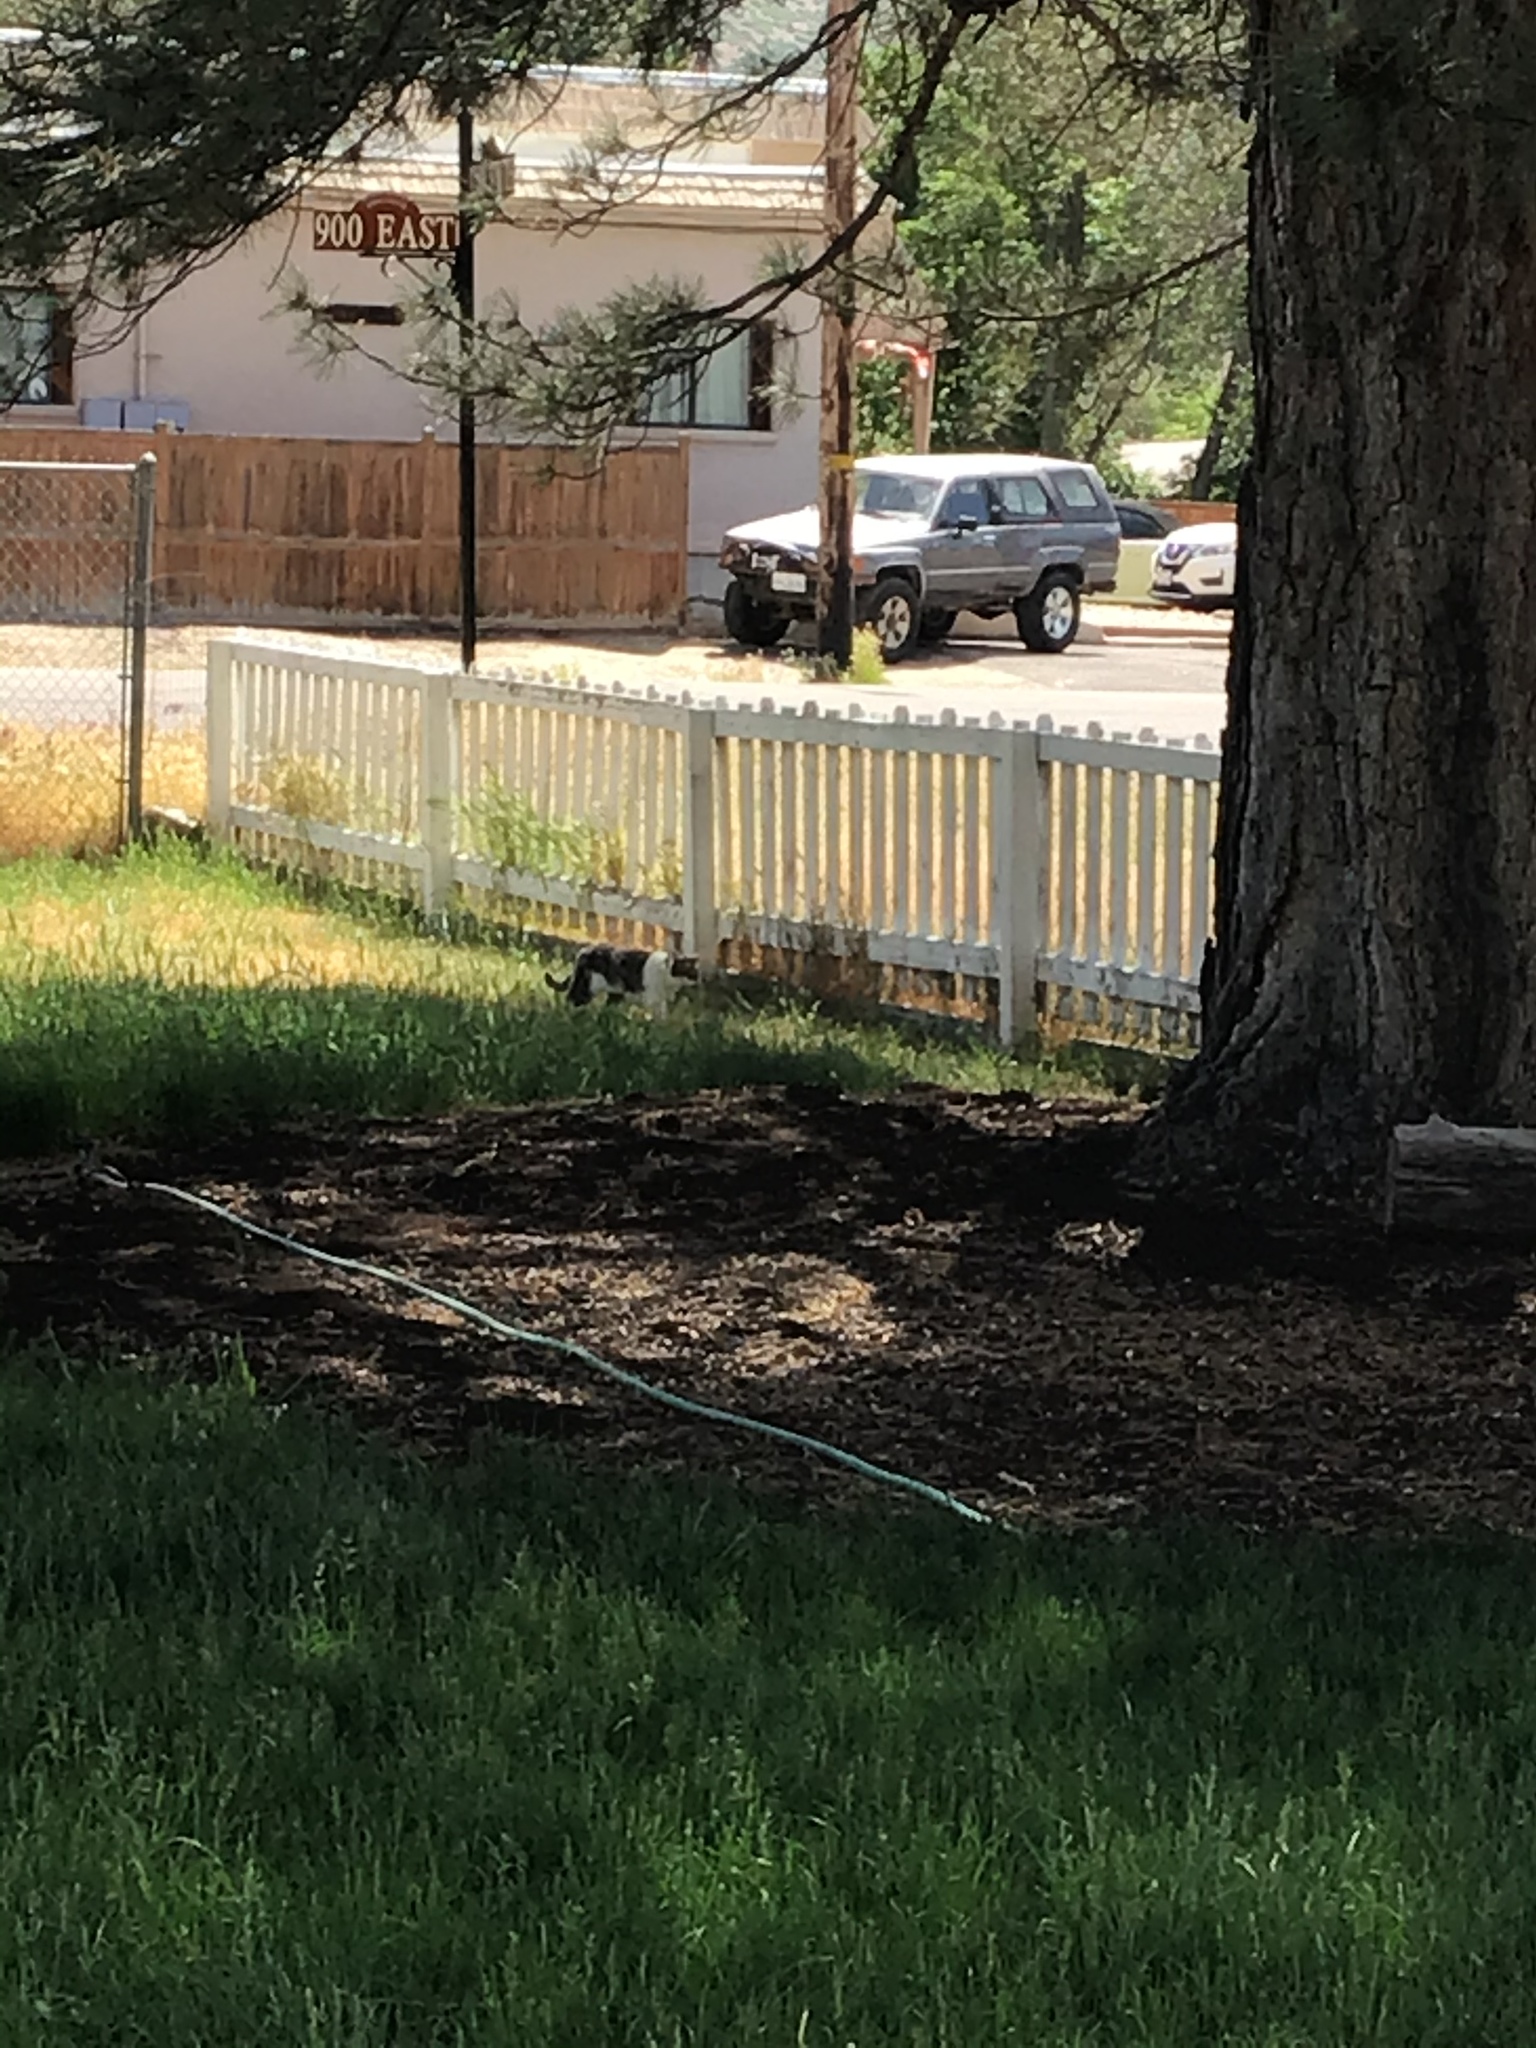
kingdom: Animalia
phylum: Chordata
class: Mammalia
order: Carnivora
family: Felidae
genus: Felis
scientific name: Felis catus
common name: Domestic cat
